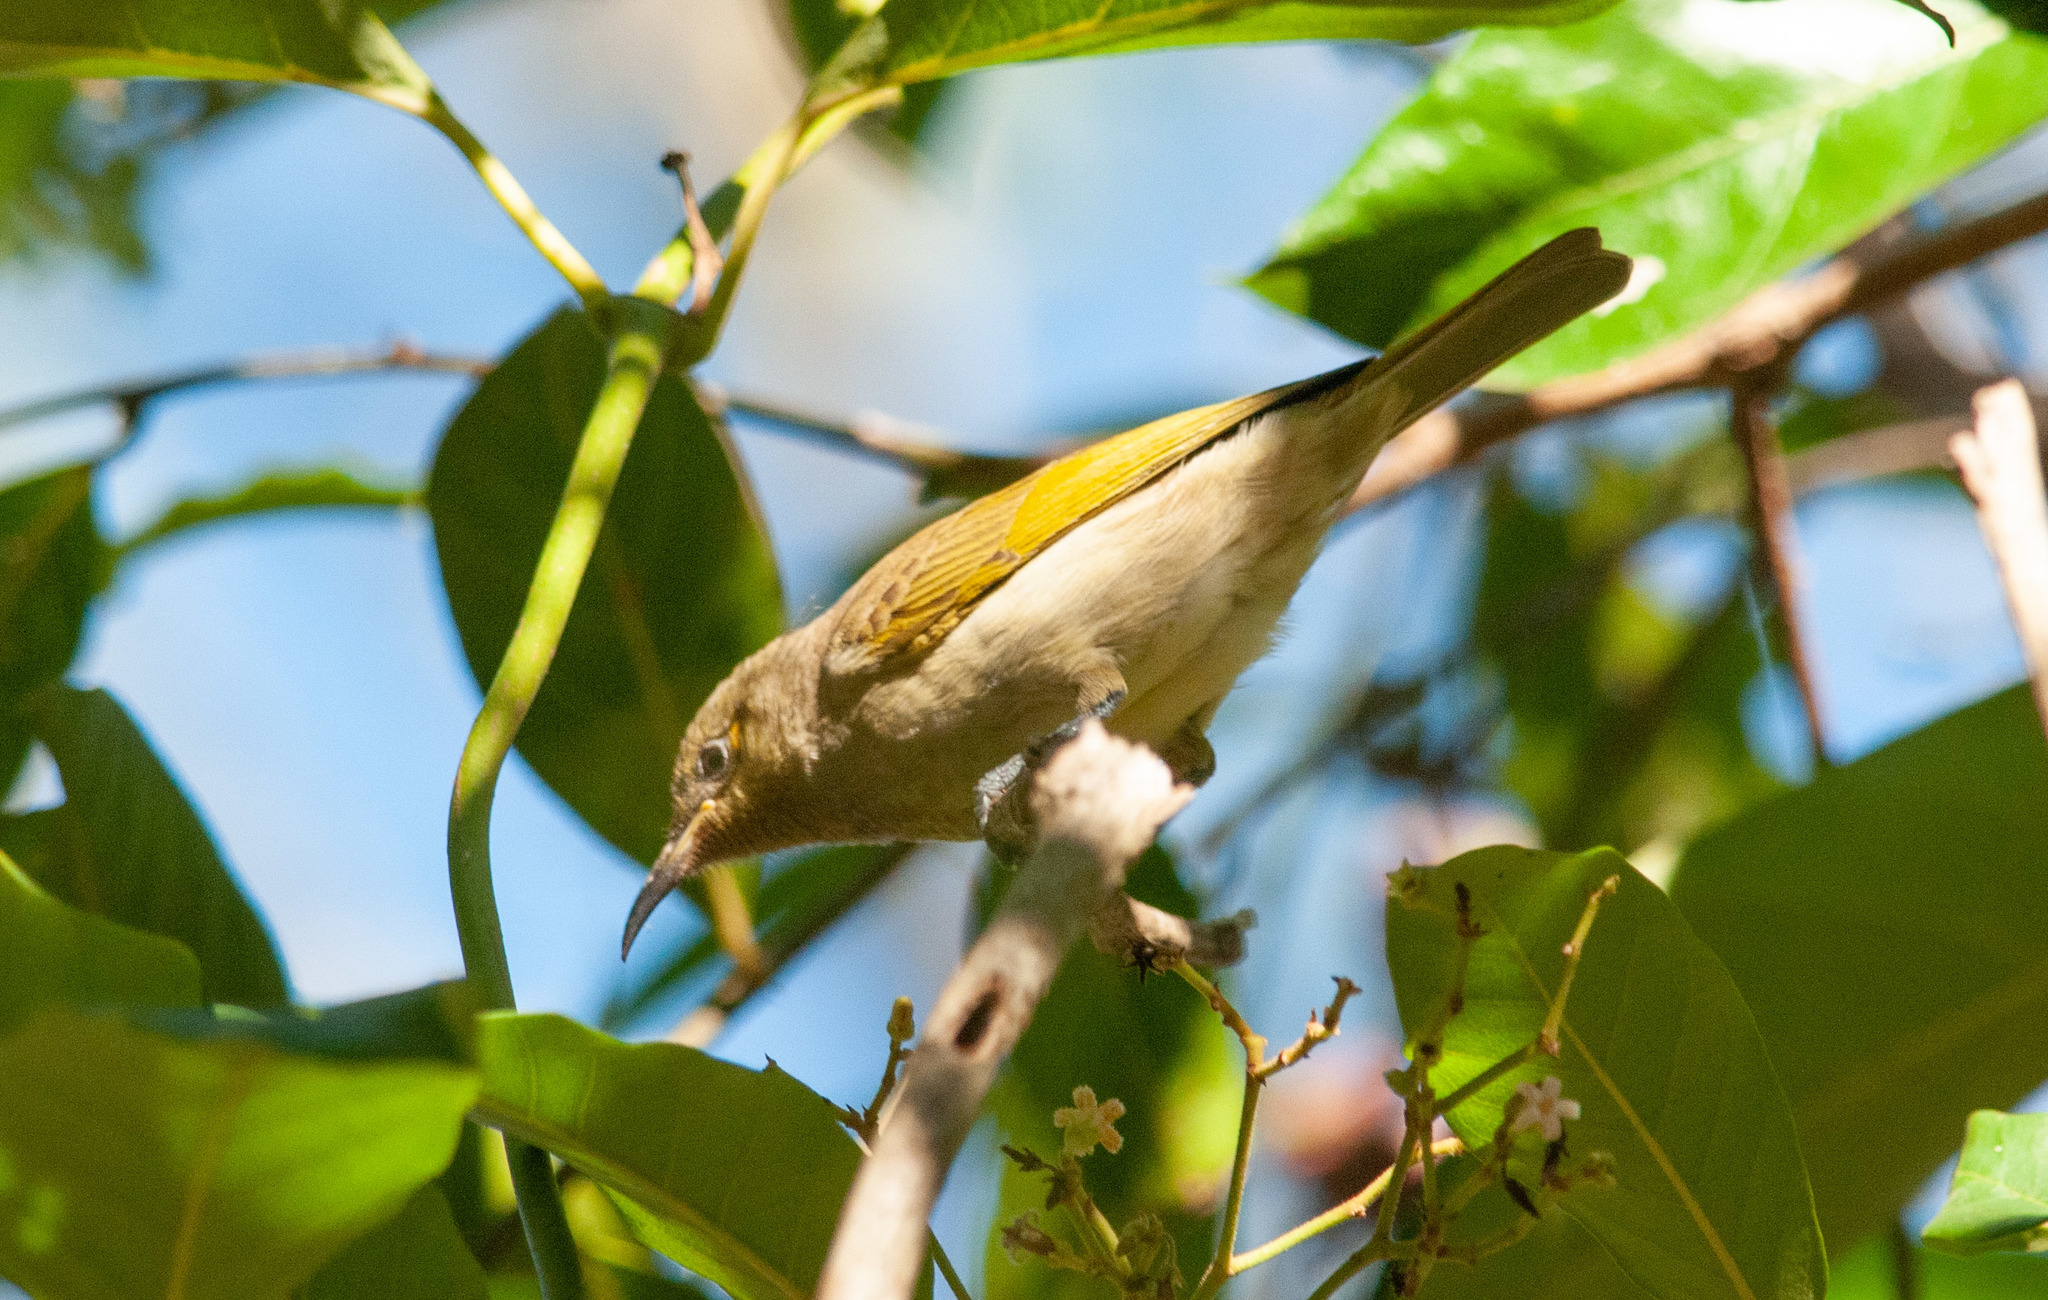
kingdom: Animalia
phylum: Chordata
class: Aves
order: Passeriformes
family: Meliphagidae
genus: Lichmera
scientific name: Lichmera indistincta
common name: Brown honeyeater
